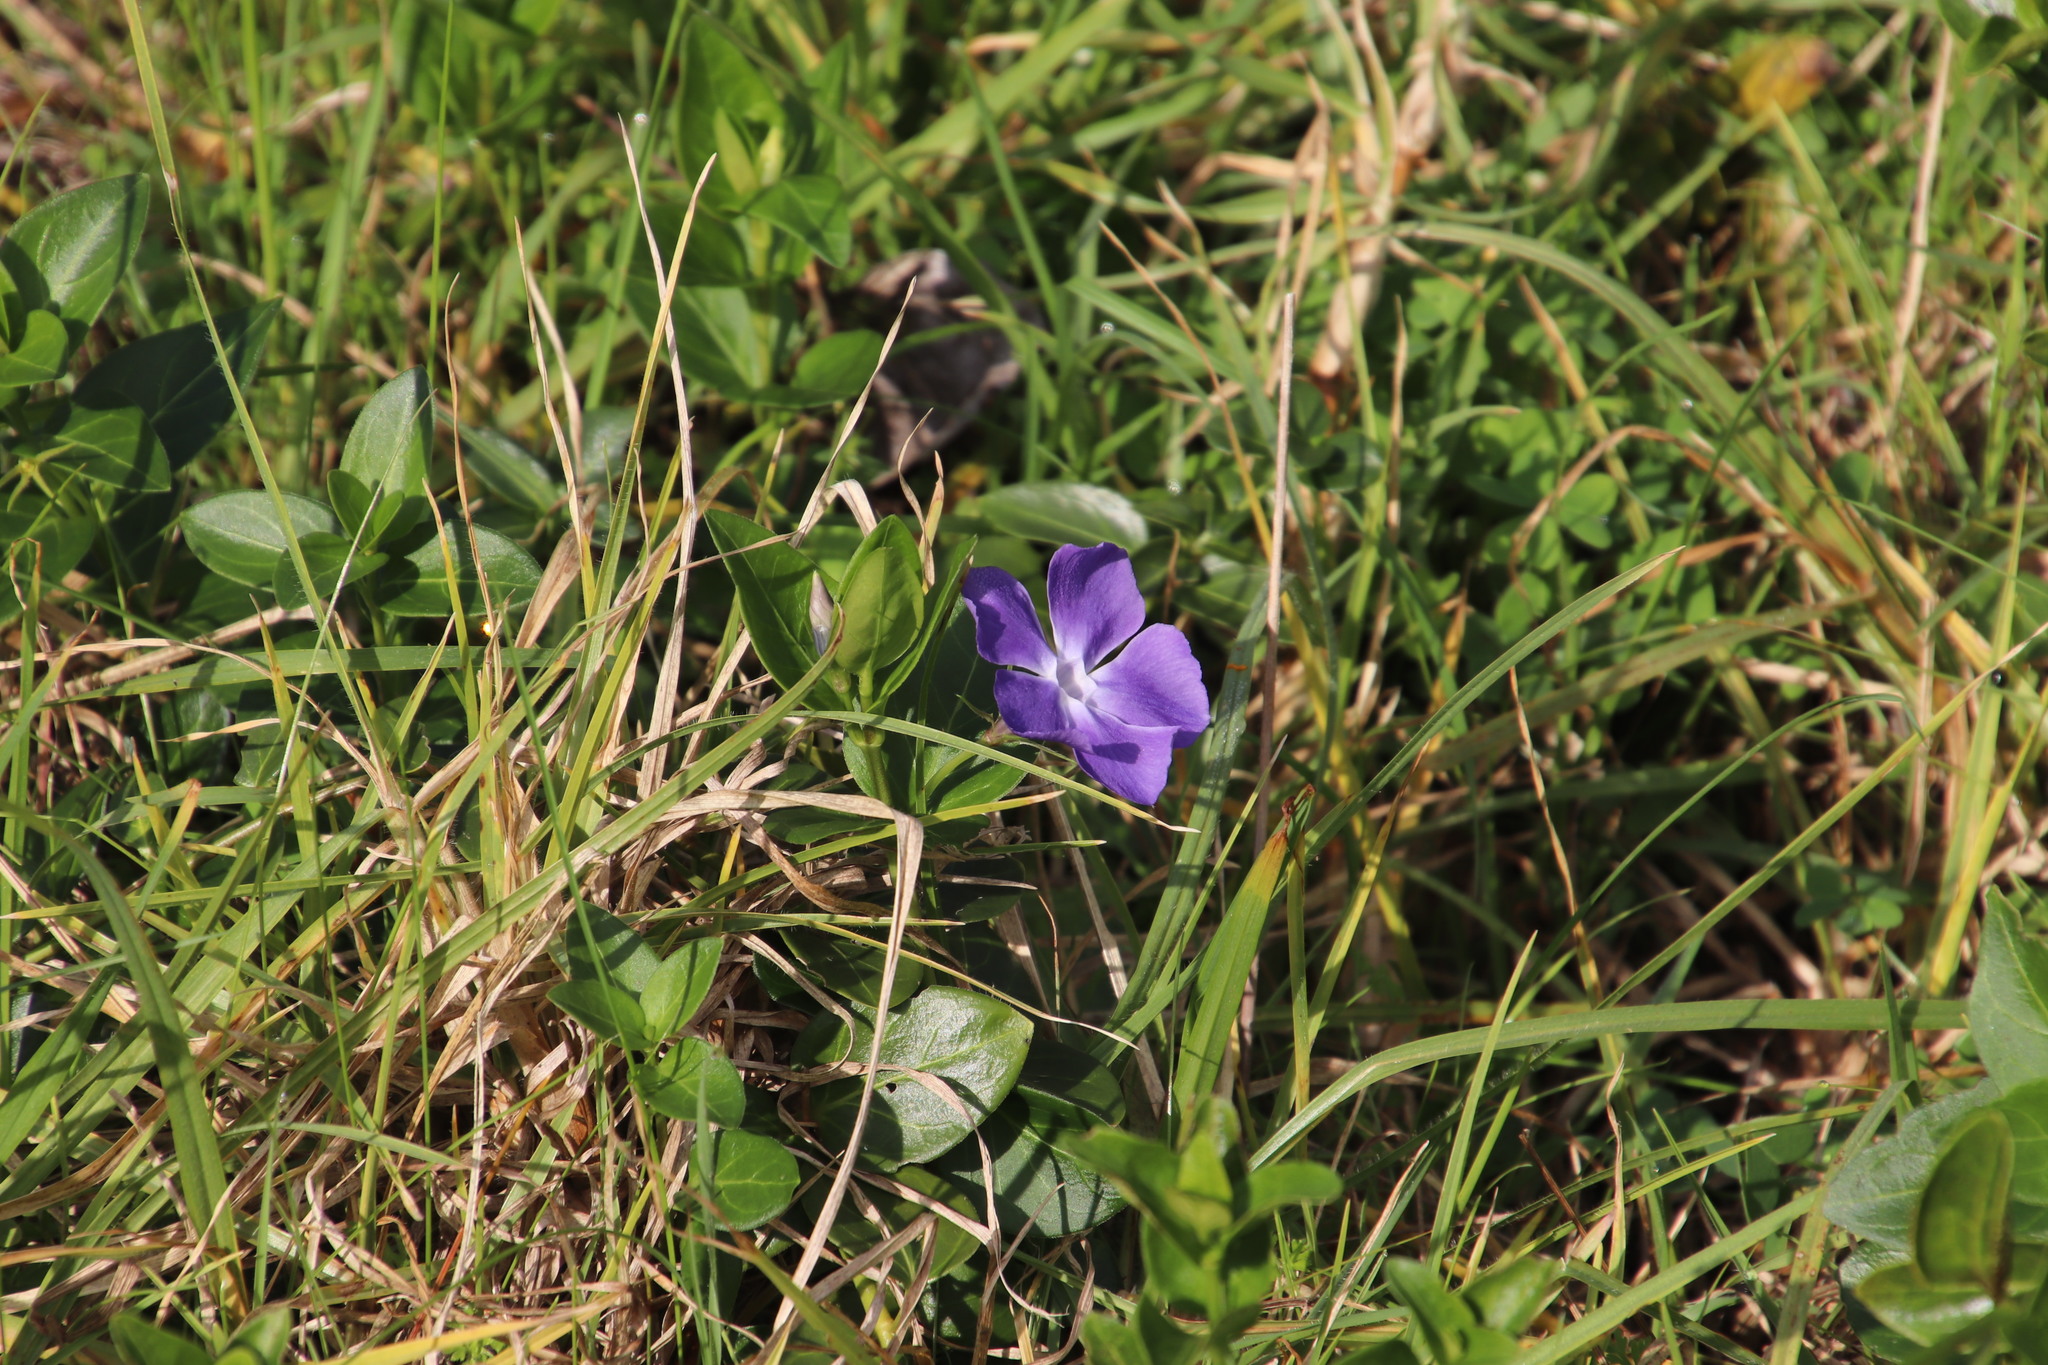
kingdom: Plantae
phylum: Tracheophyta
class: Magnoliopsida
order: Gentianales
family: Apocynaceae
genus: Vinca
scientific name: Vinca major
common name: Greater periwinkle
